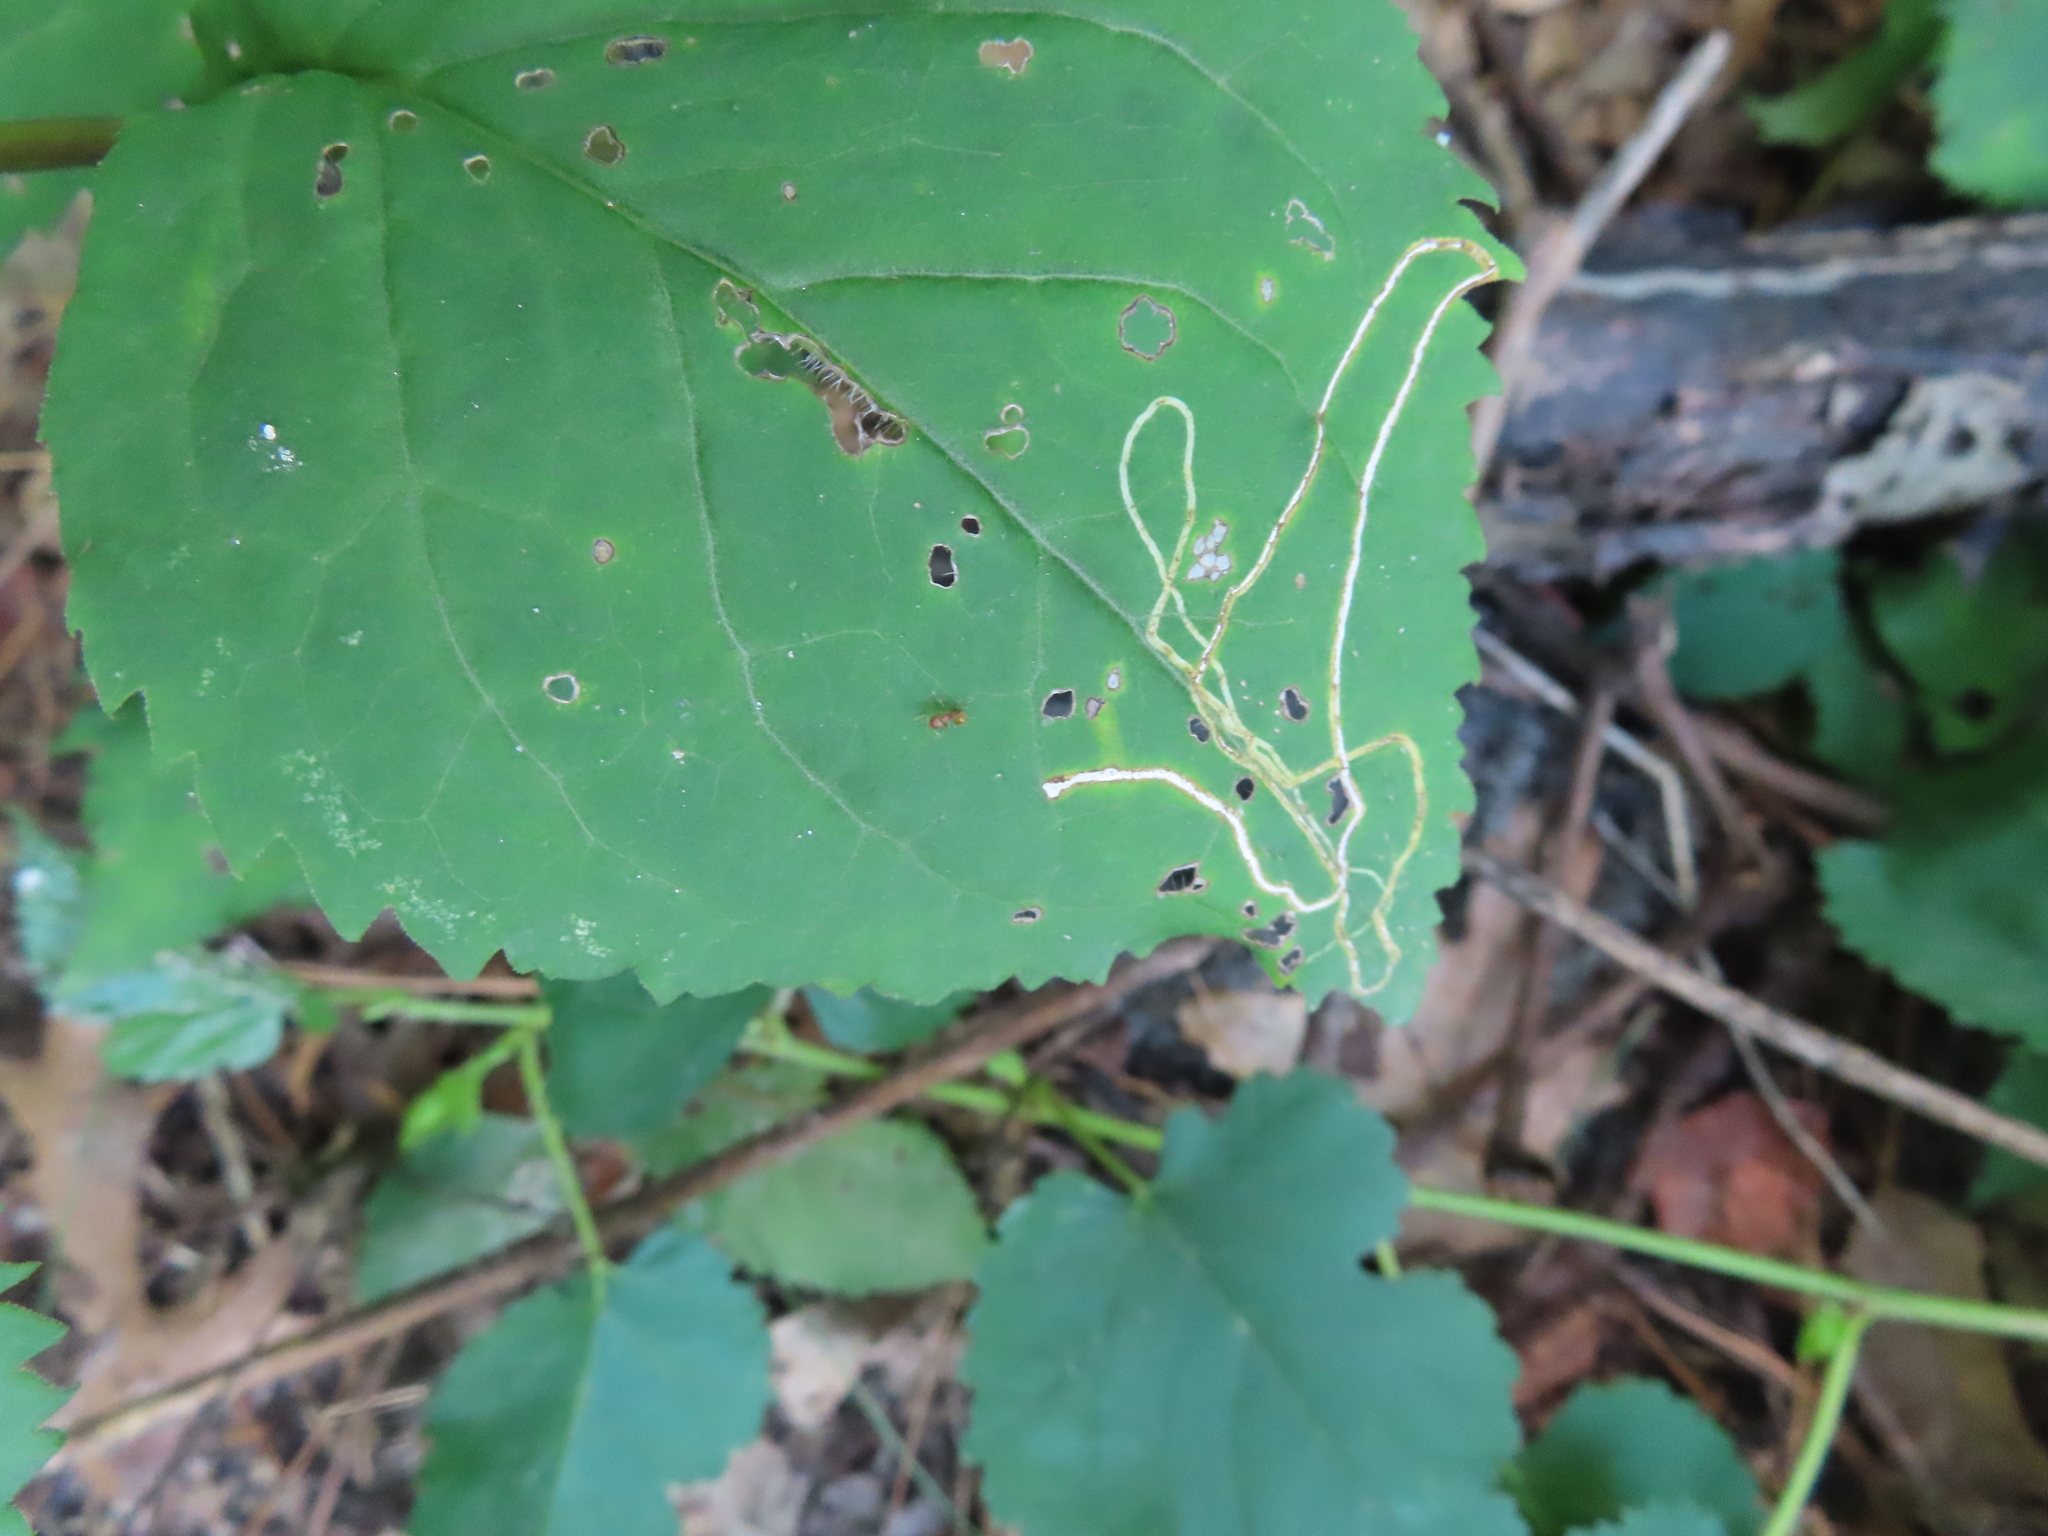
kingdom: Animalia
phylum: Arthropoda
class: Insecta
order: Diptera
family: Agromyzidae
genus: Ophiomyia
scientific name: Ophiomyia maura
